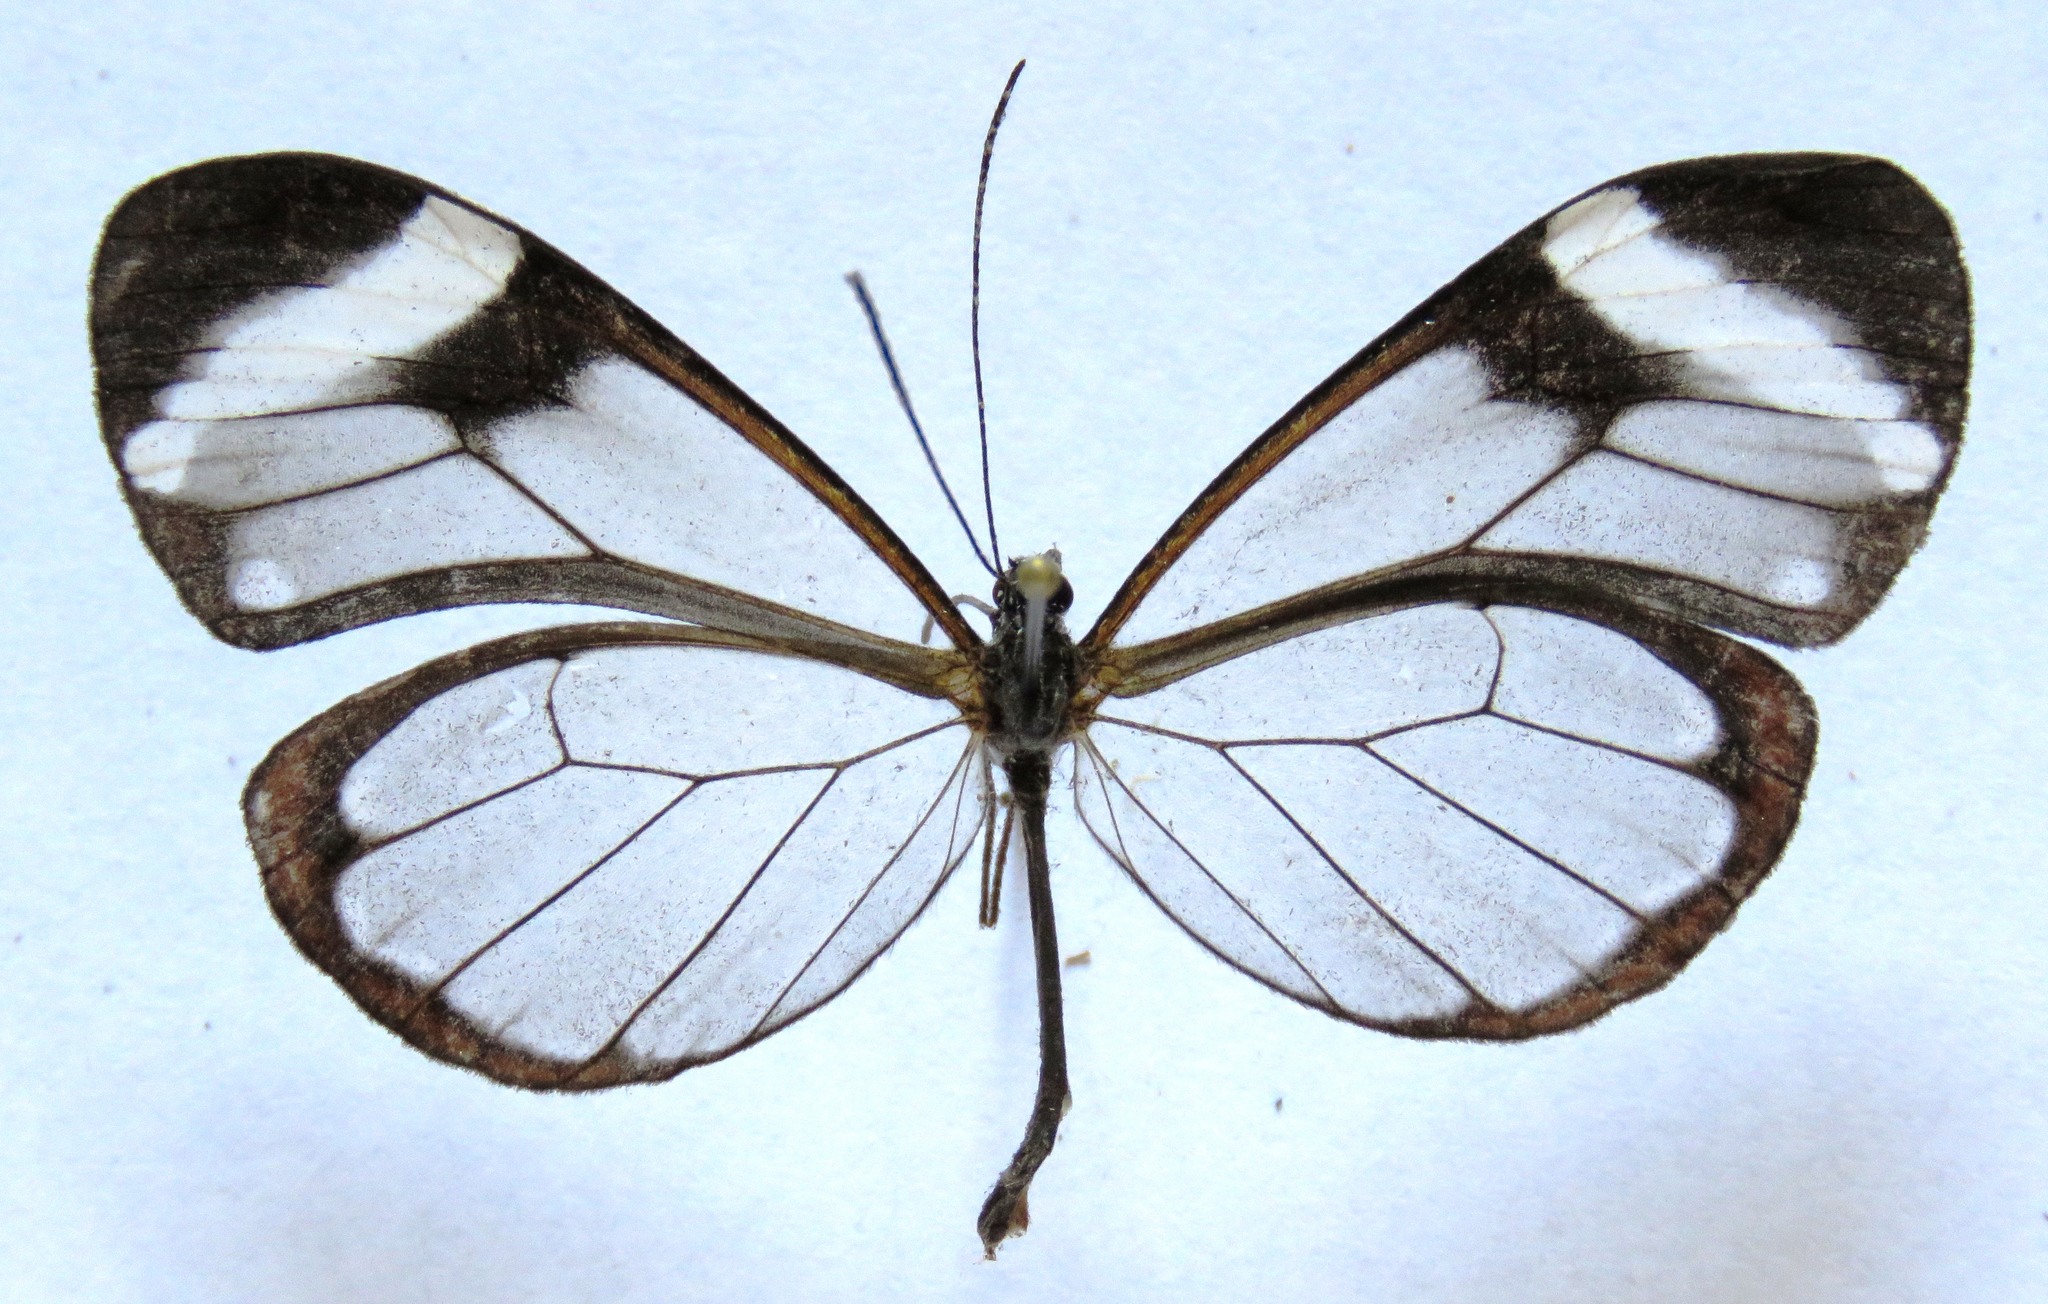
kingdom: Animalia
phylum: Arthropoda
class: Insecta
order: Lepidoptera
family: Nymphalidae
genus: Greta
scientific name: Greta morgane
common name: Thick-tipped greta
